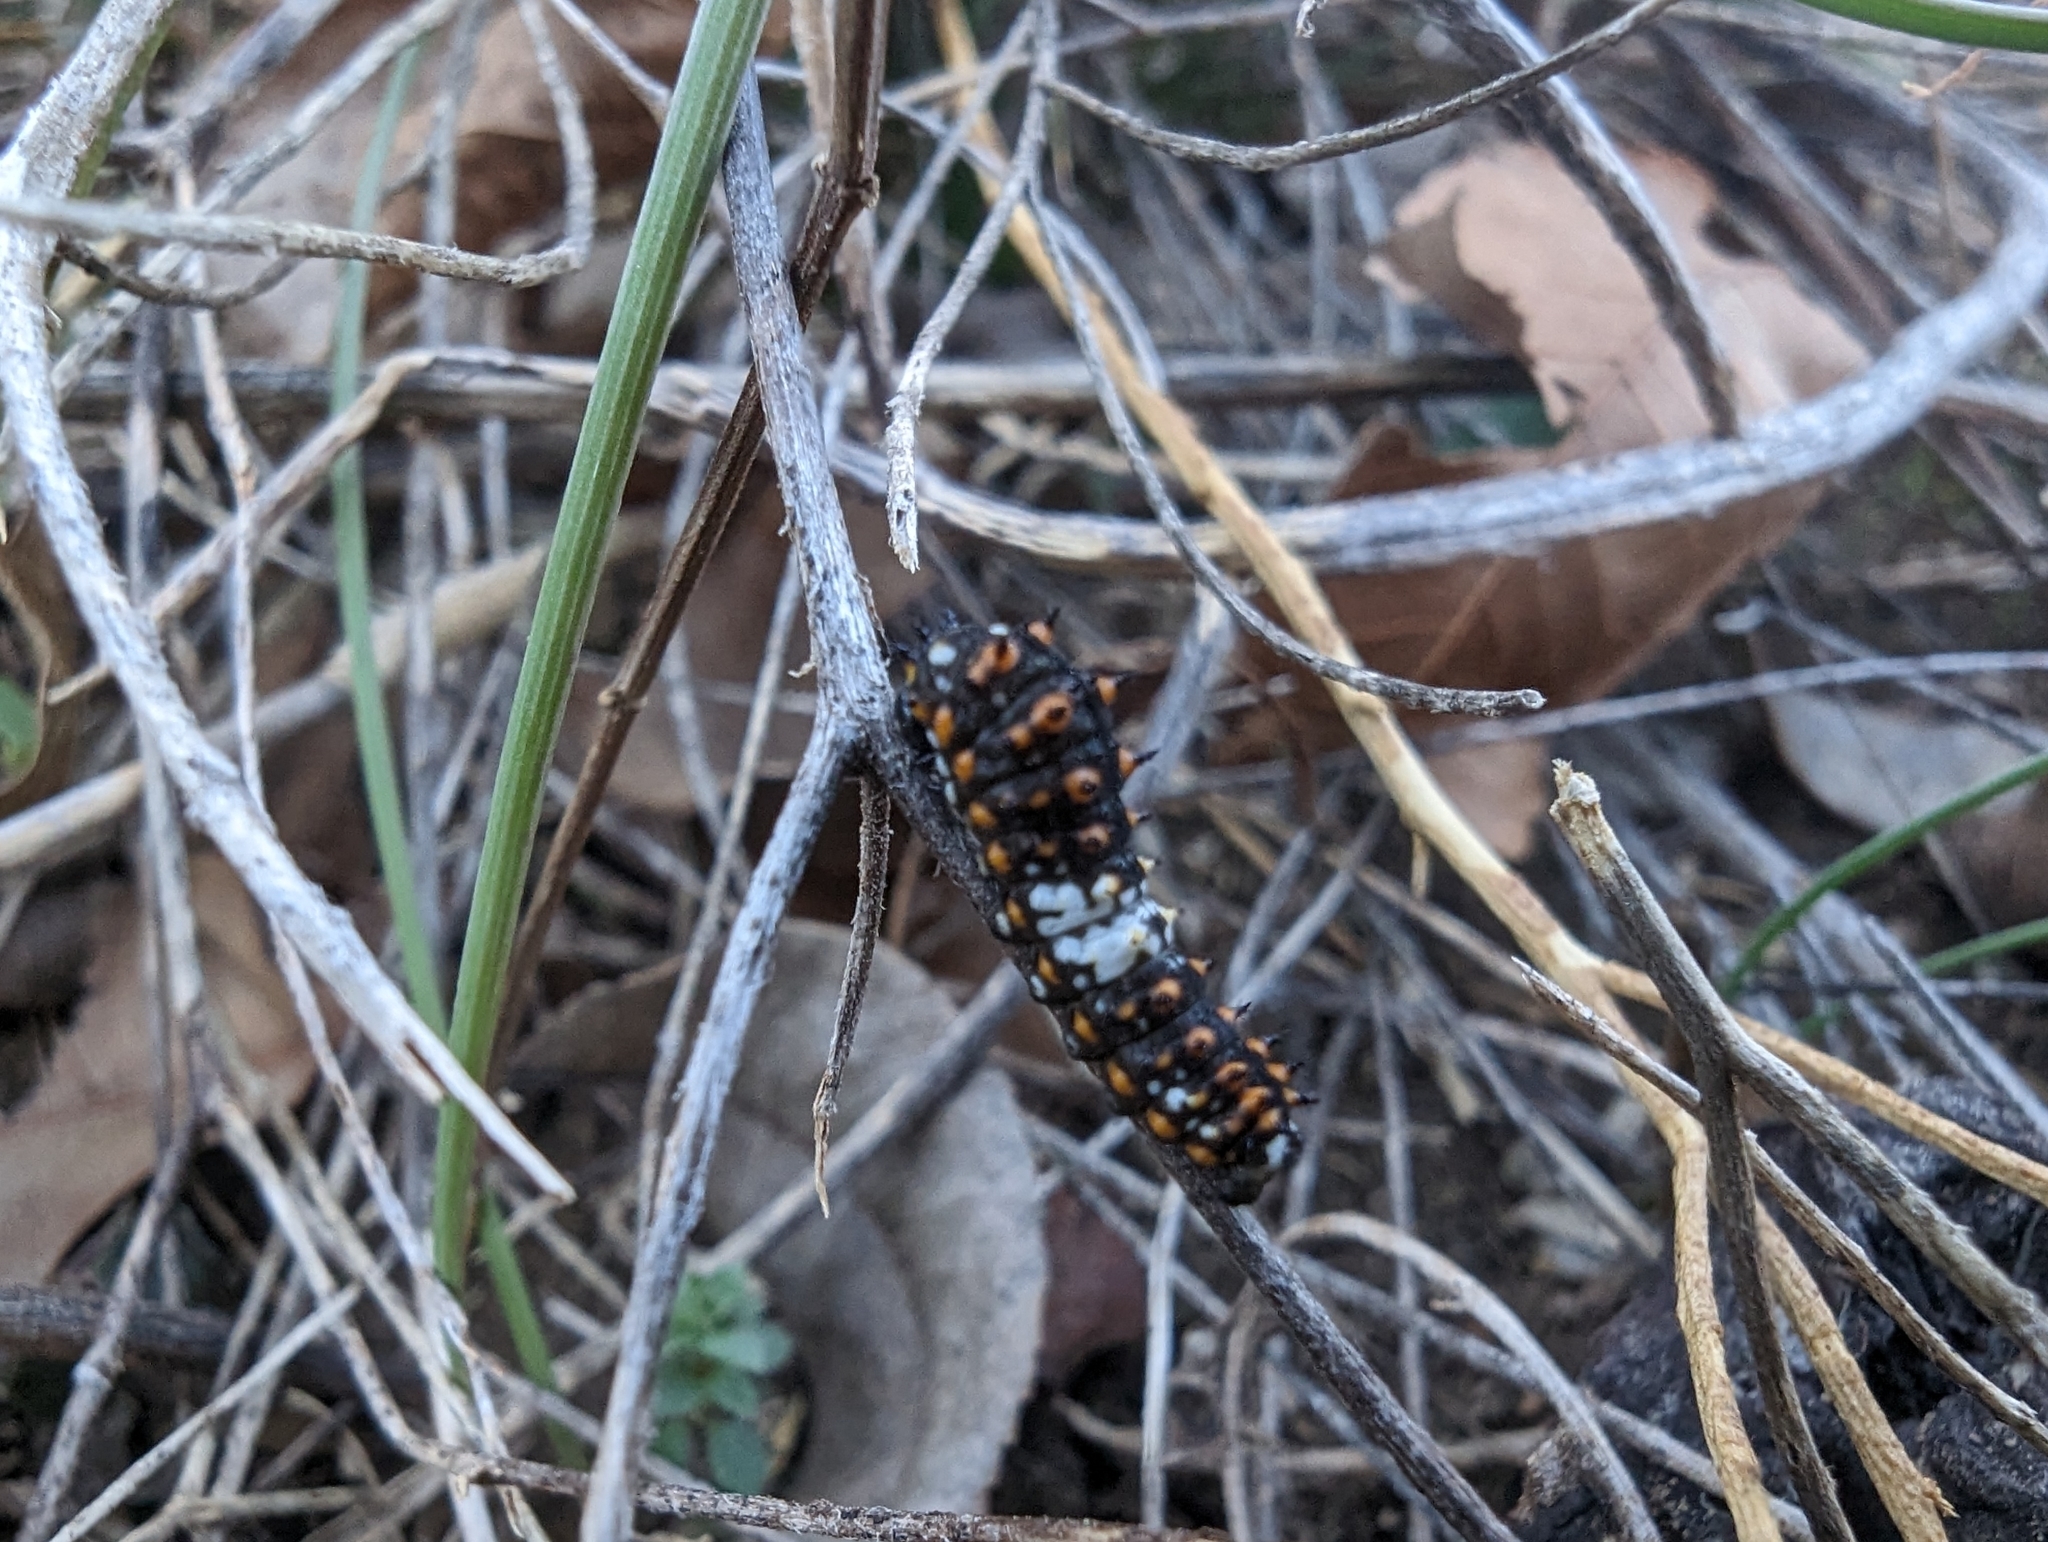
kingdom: Animalia
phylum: Arthropoda
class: Insecta
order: Lepidoptera
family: Papilionidae
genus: Papilio
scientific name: Papilio polyxenes
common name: Black swallowtail
